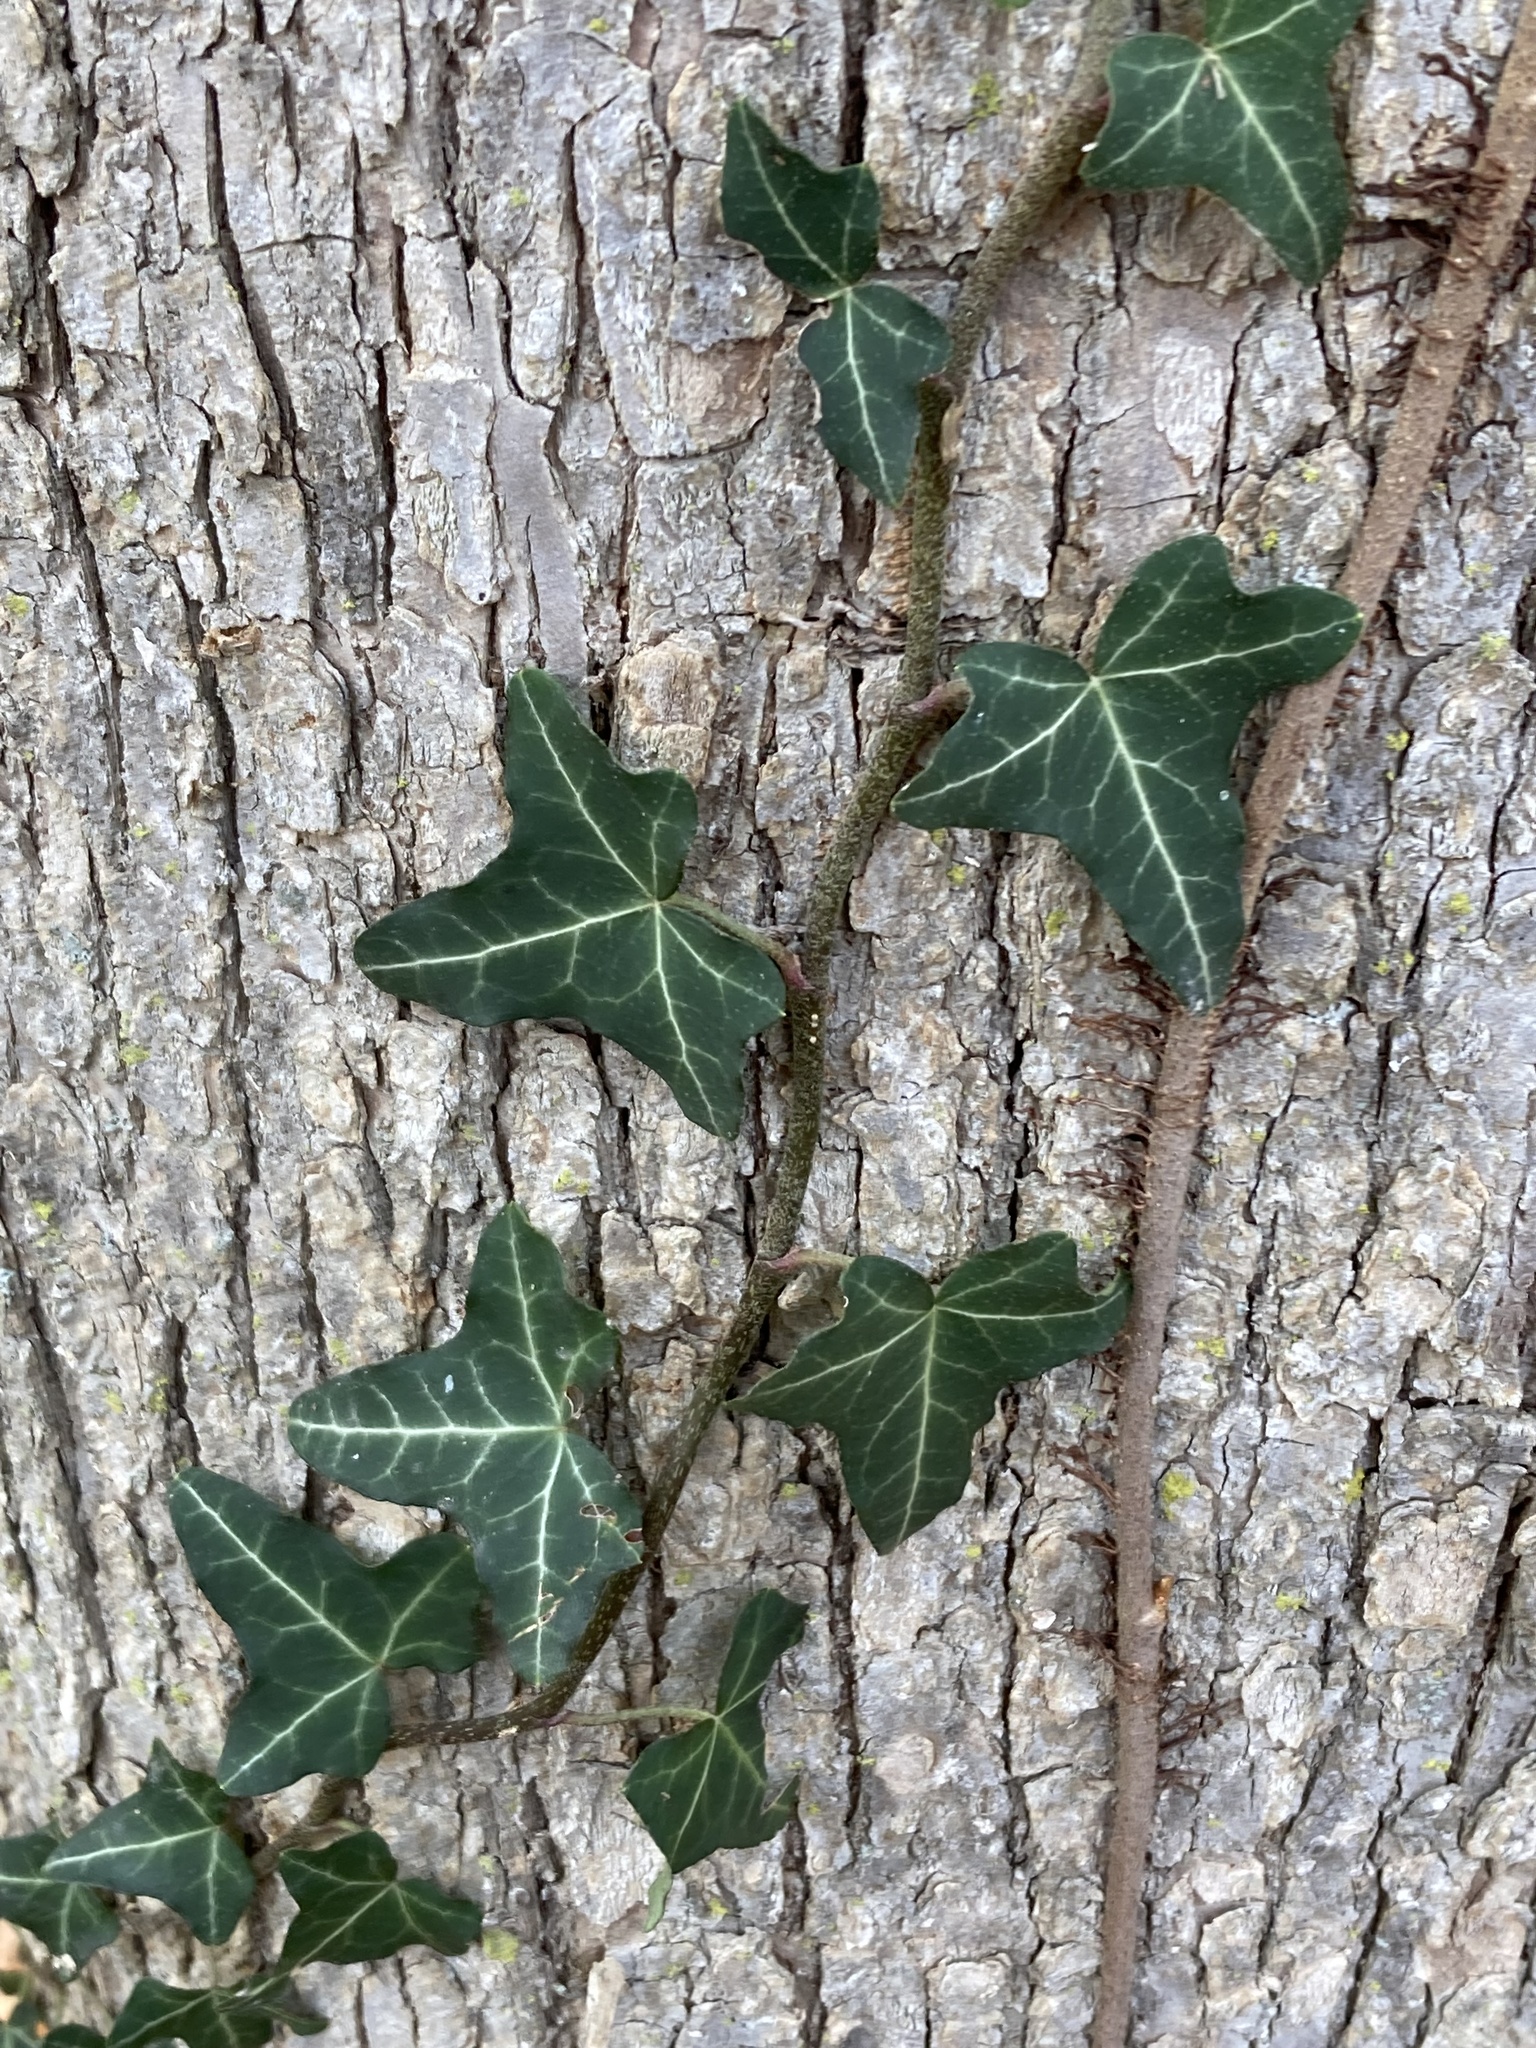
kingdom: Plantae
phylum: Tracheophyta
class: Magnoliopsida
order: Apiales
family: Araliaceae
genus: Hedera
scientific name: Hedera helix
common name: Ivy
